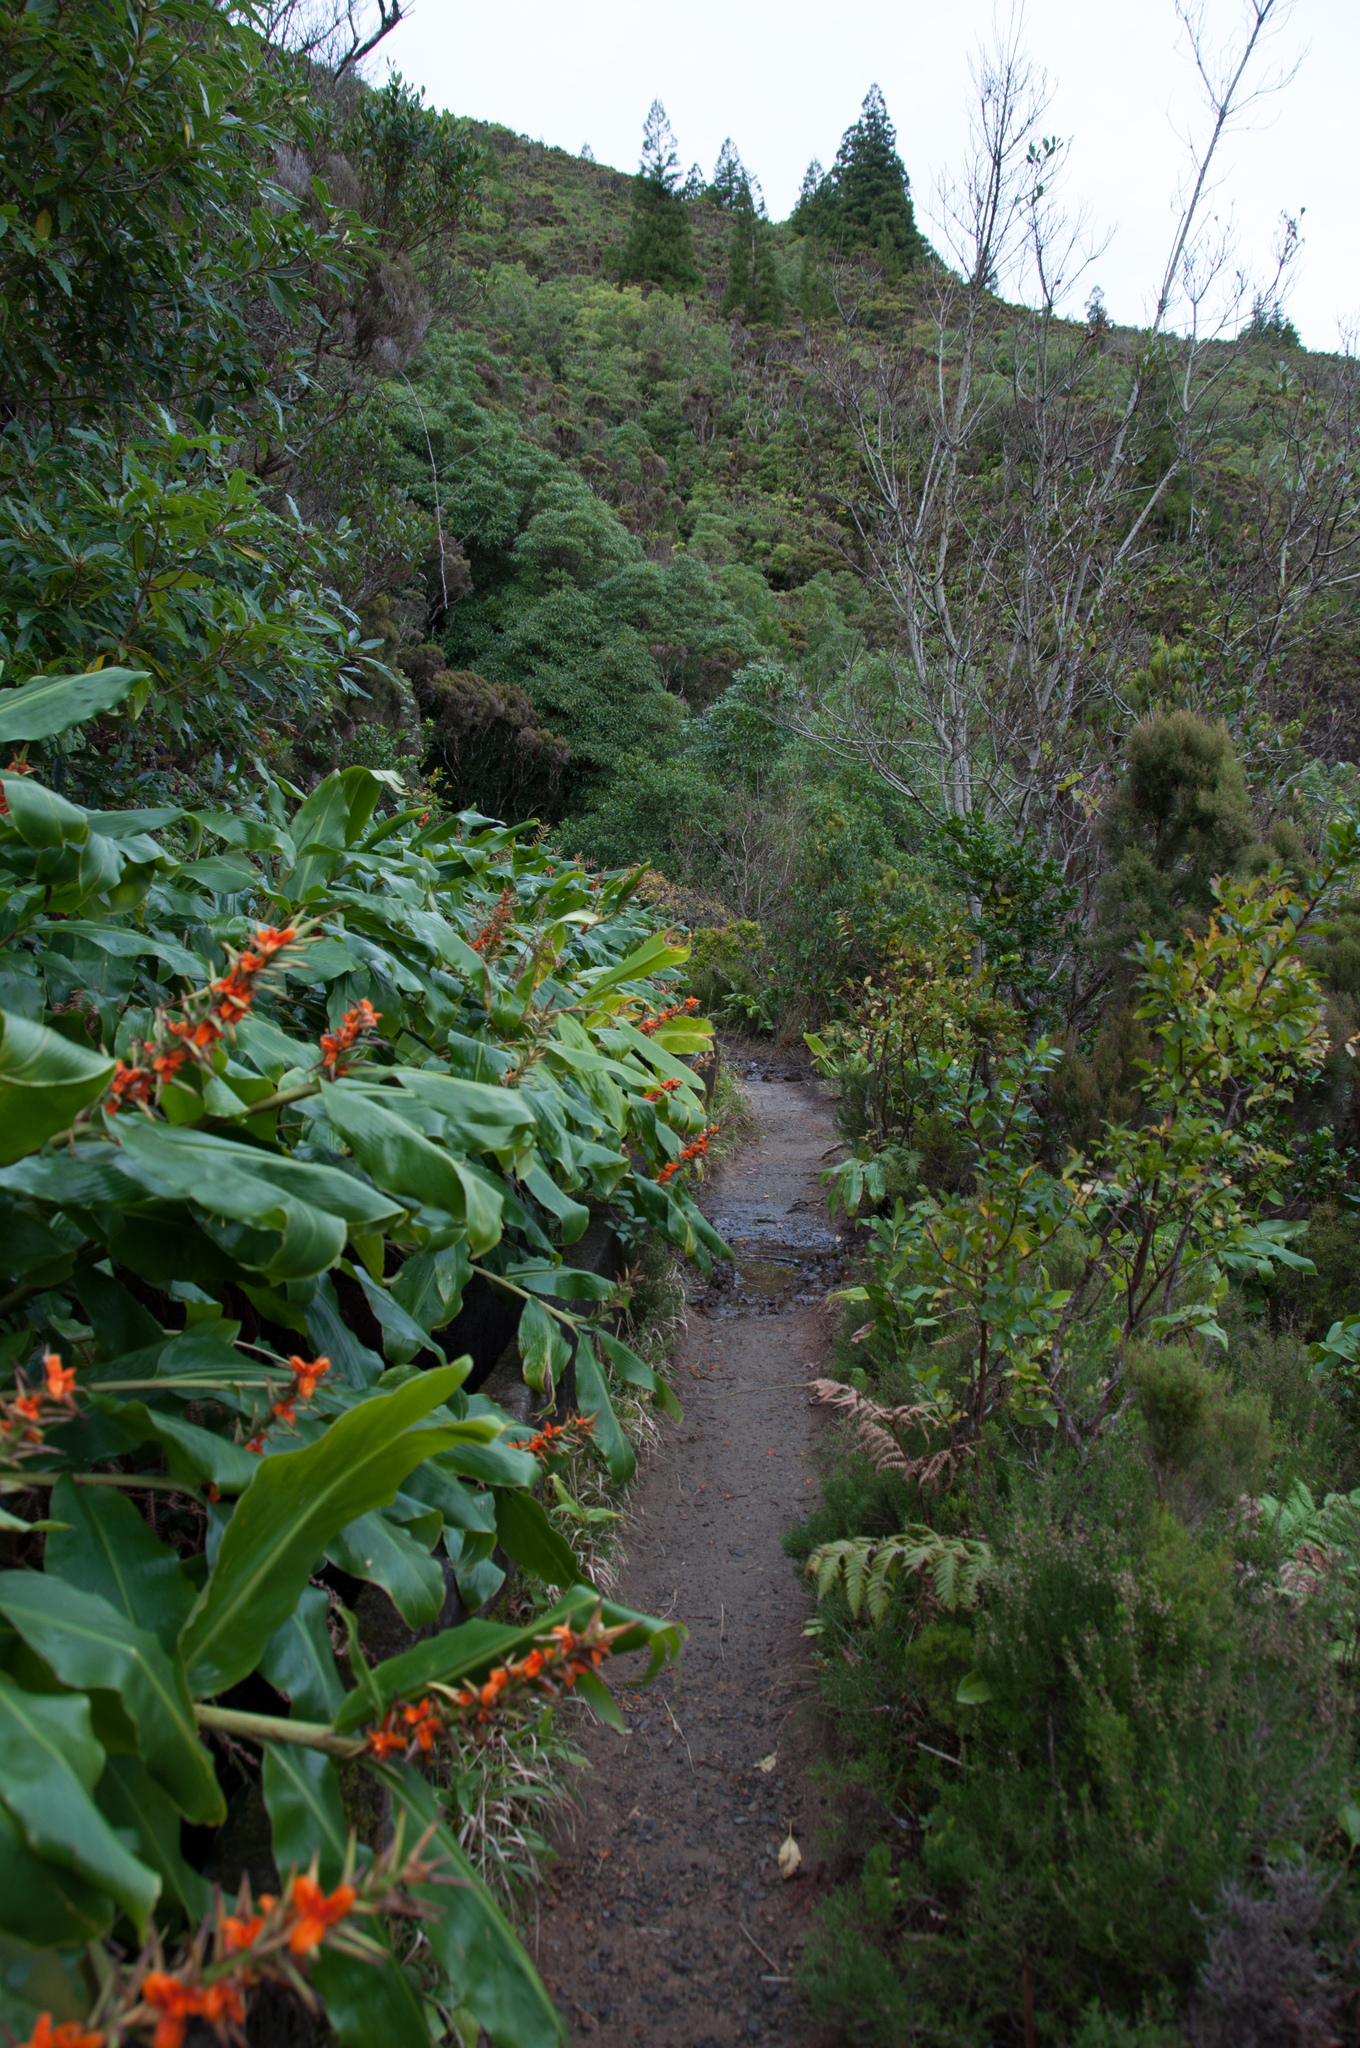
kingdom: Plantae
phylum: Tracheophyta
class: Liliopsida
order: Zingiberales
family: Zingiberaceae
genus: Hedychium
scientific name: Hedychium gardnerianum
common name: Himalayan ginger
